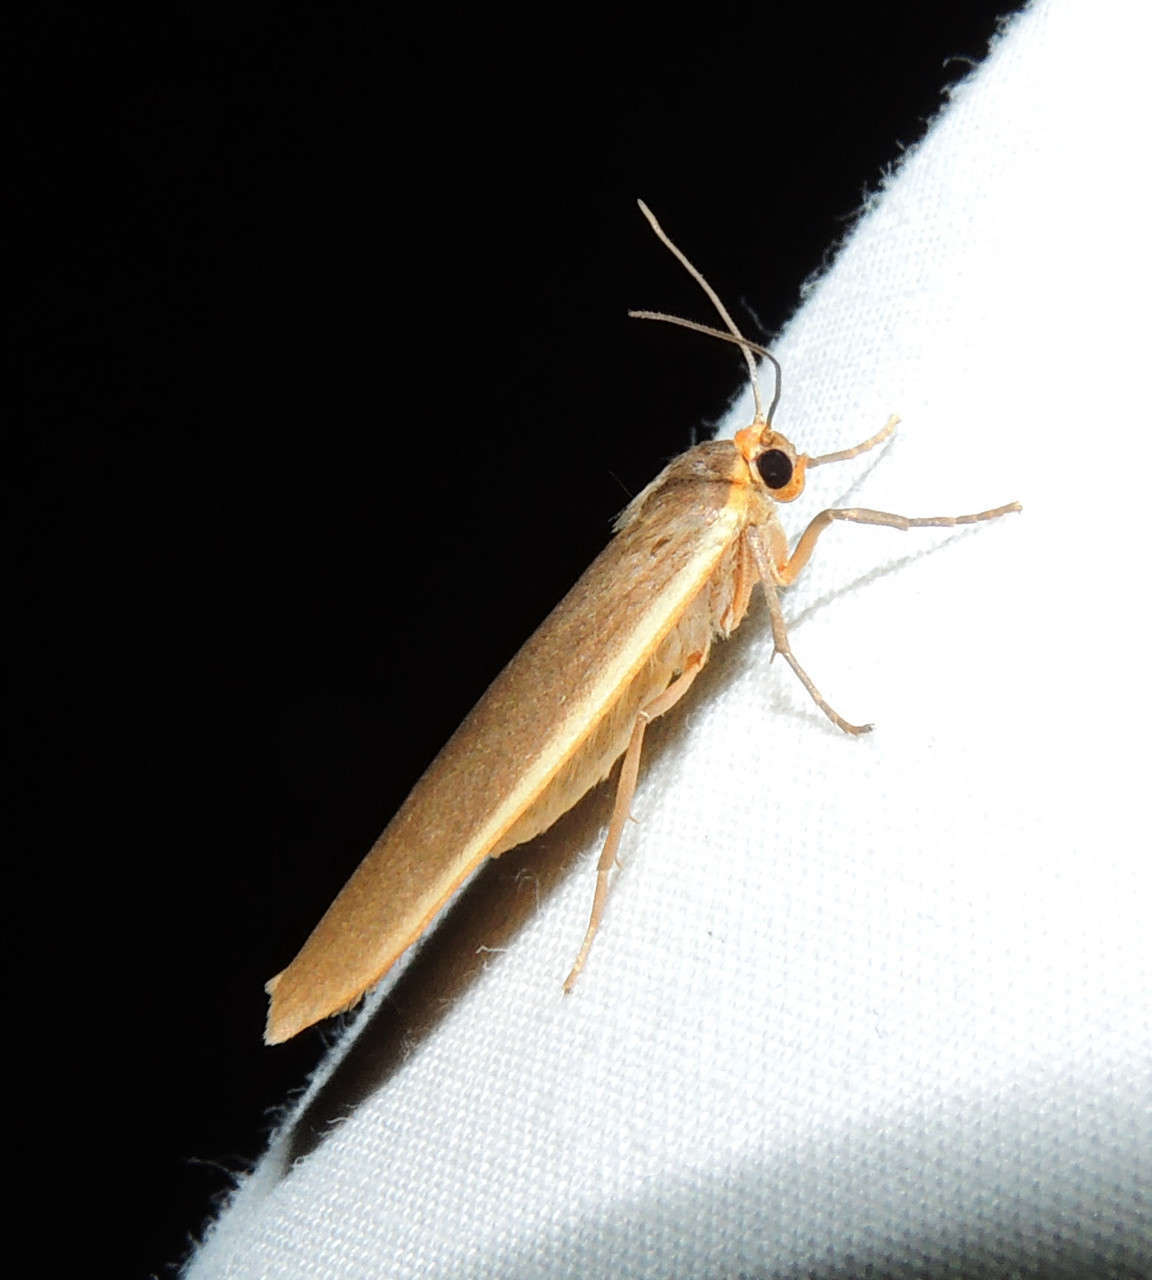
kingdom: Animalia
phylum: Arthropoda
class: Insecta
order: Lepidoptera
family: Erebidae
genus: Palaeosia
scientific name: Palaeosia bicosta
